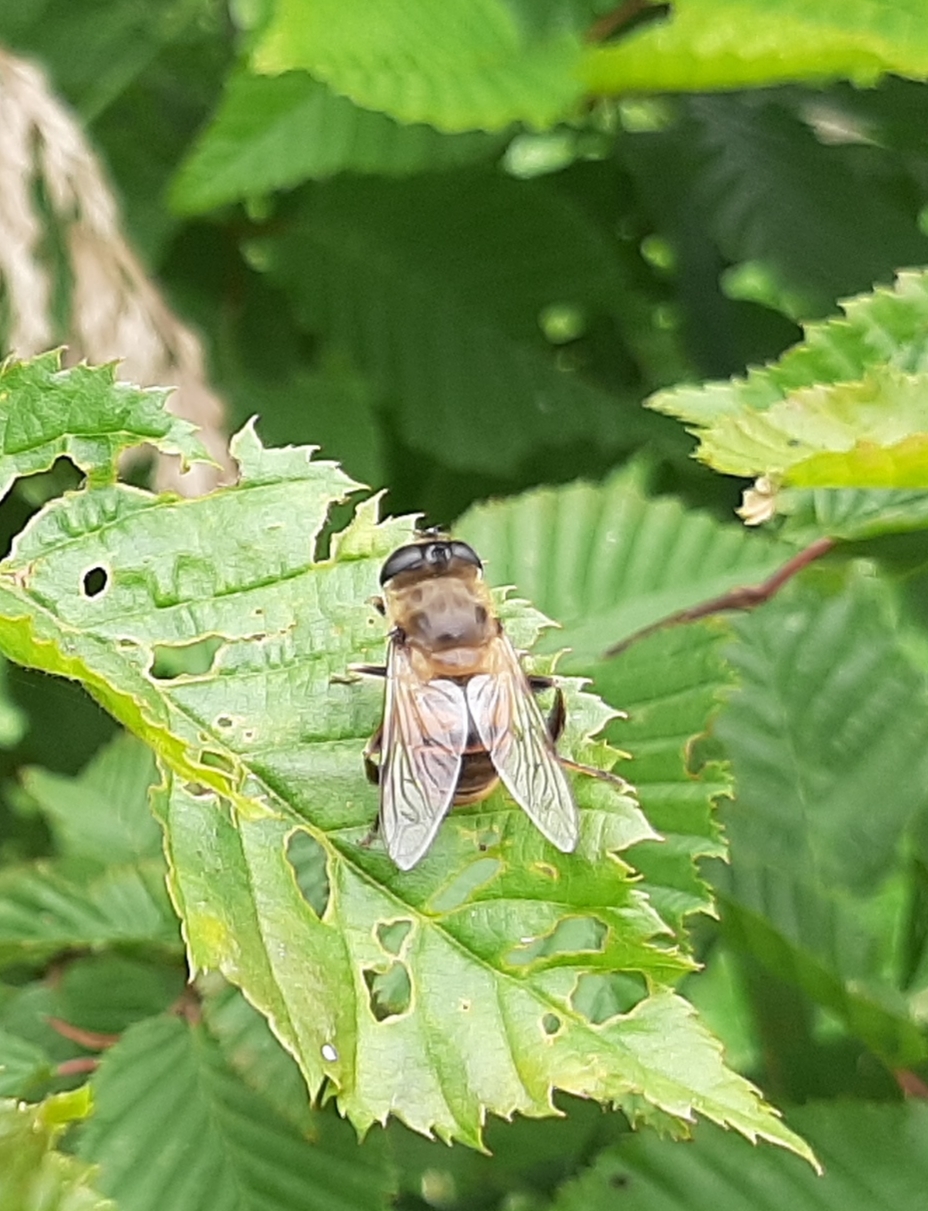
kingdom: Animalia
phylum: Arthropoda
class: Insecta
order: Diptera
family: Syrphidae
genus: Eristalis
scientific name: Eristalis tenax
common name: Drone fly
